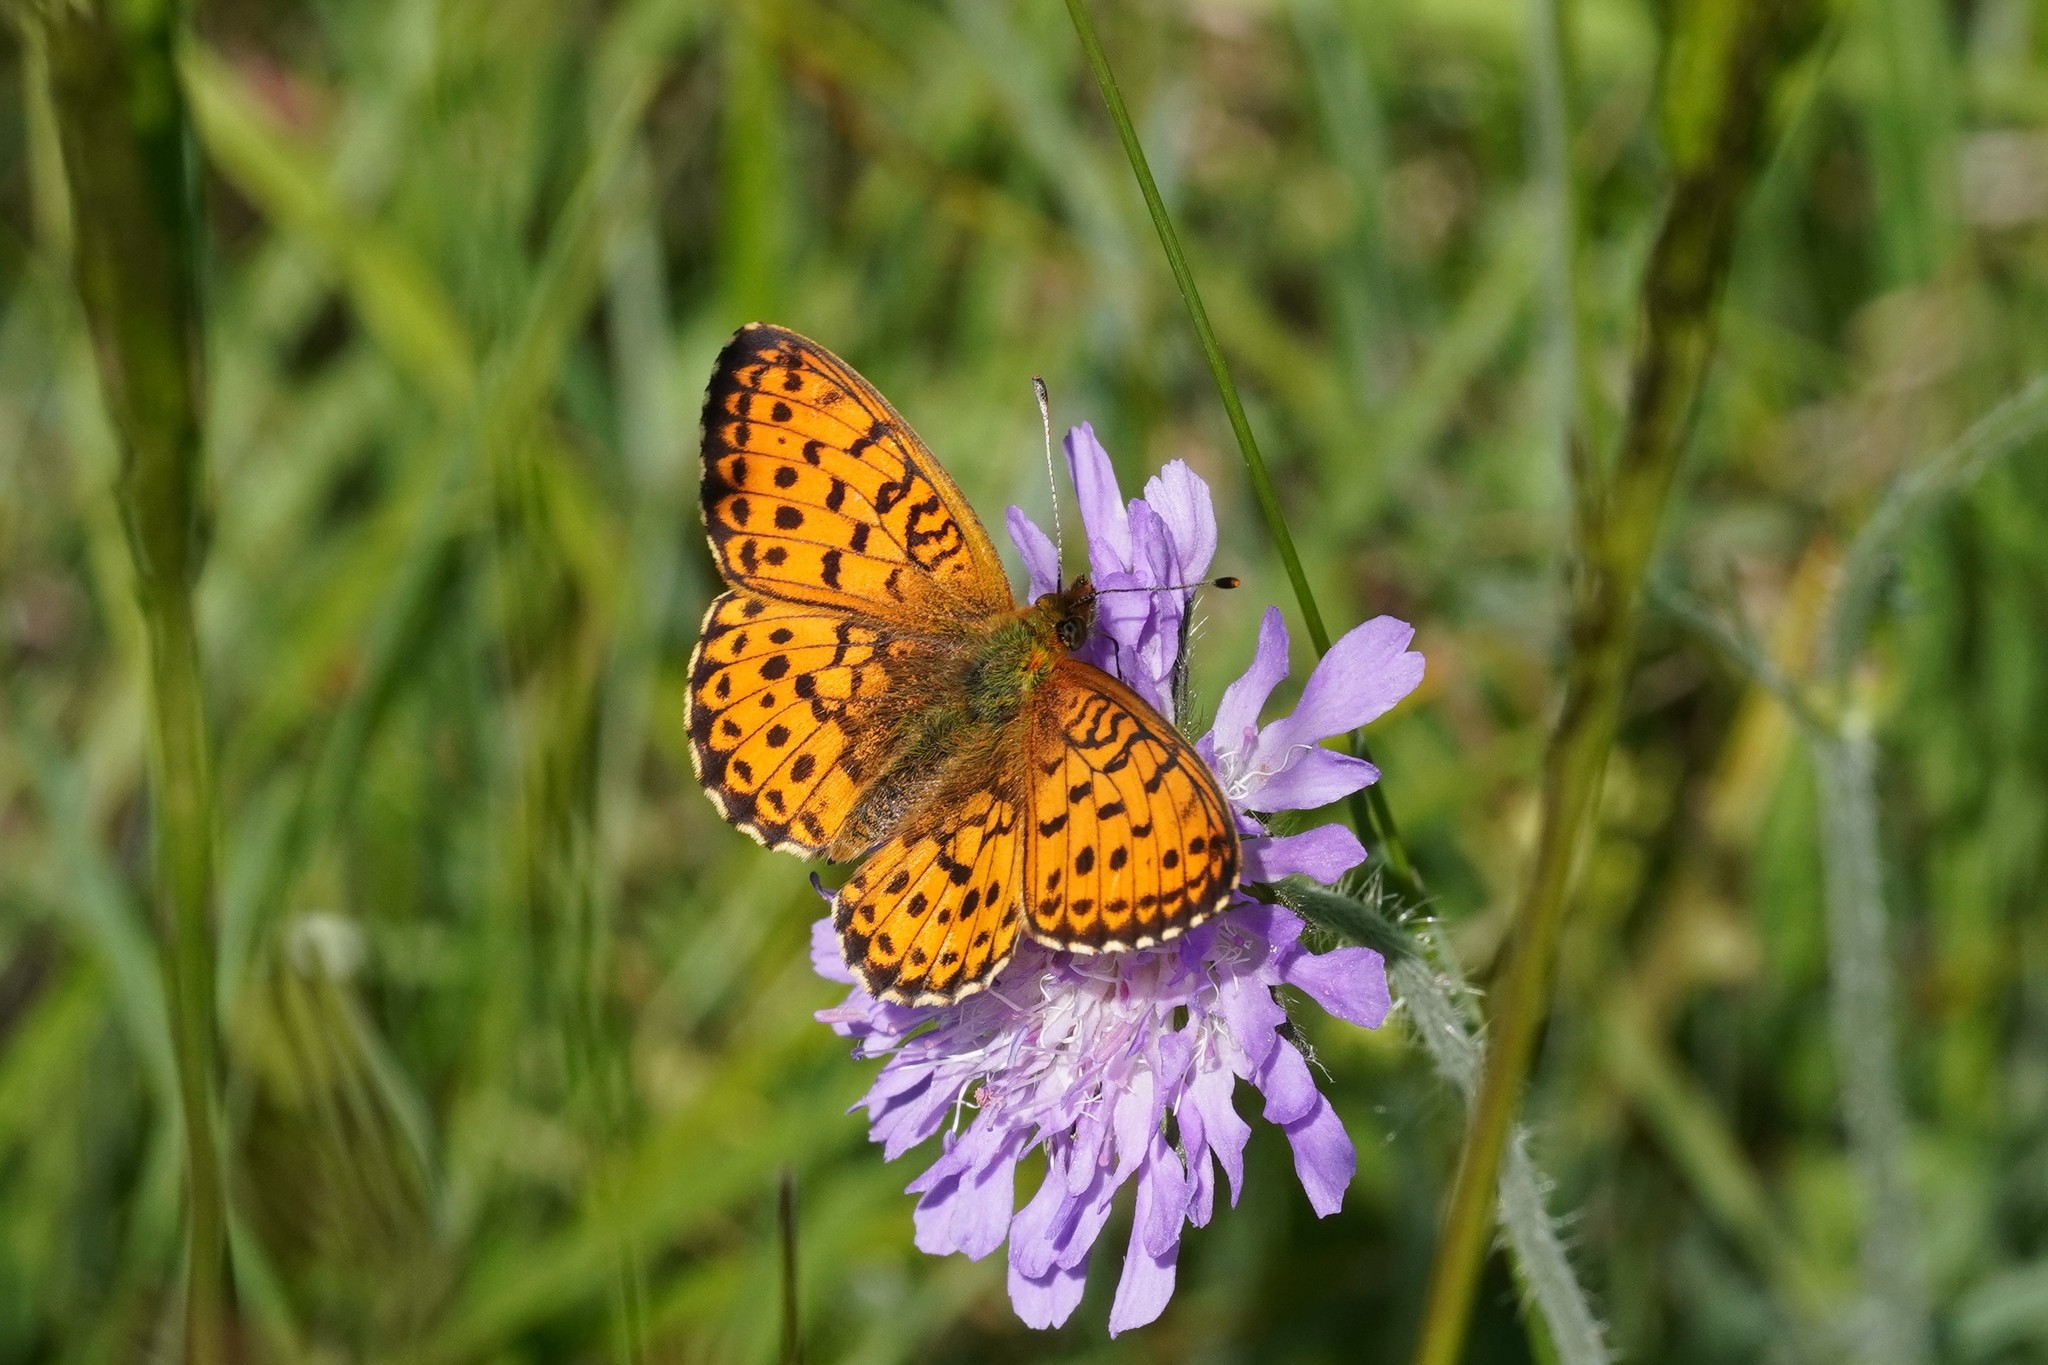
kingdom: Animalia
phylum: Arthropoda
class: Insecta
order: Lepidoptera
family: Nymphalidae
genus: Brenthis
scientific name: Brenthis ino
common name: Lesser marbled fritillary
